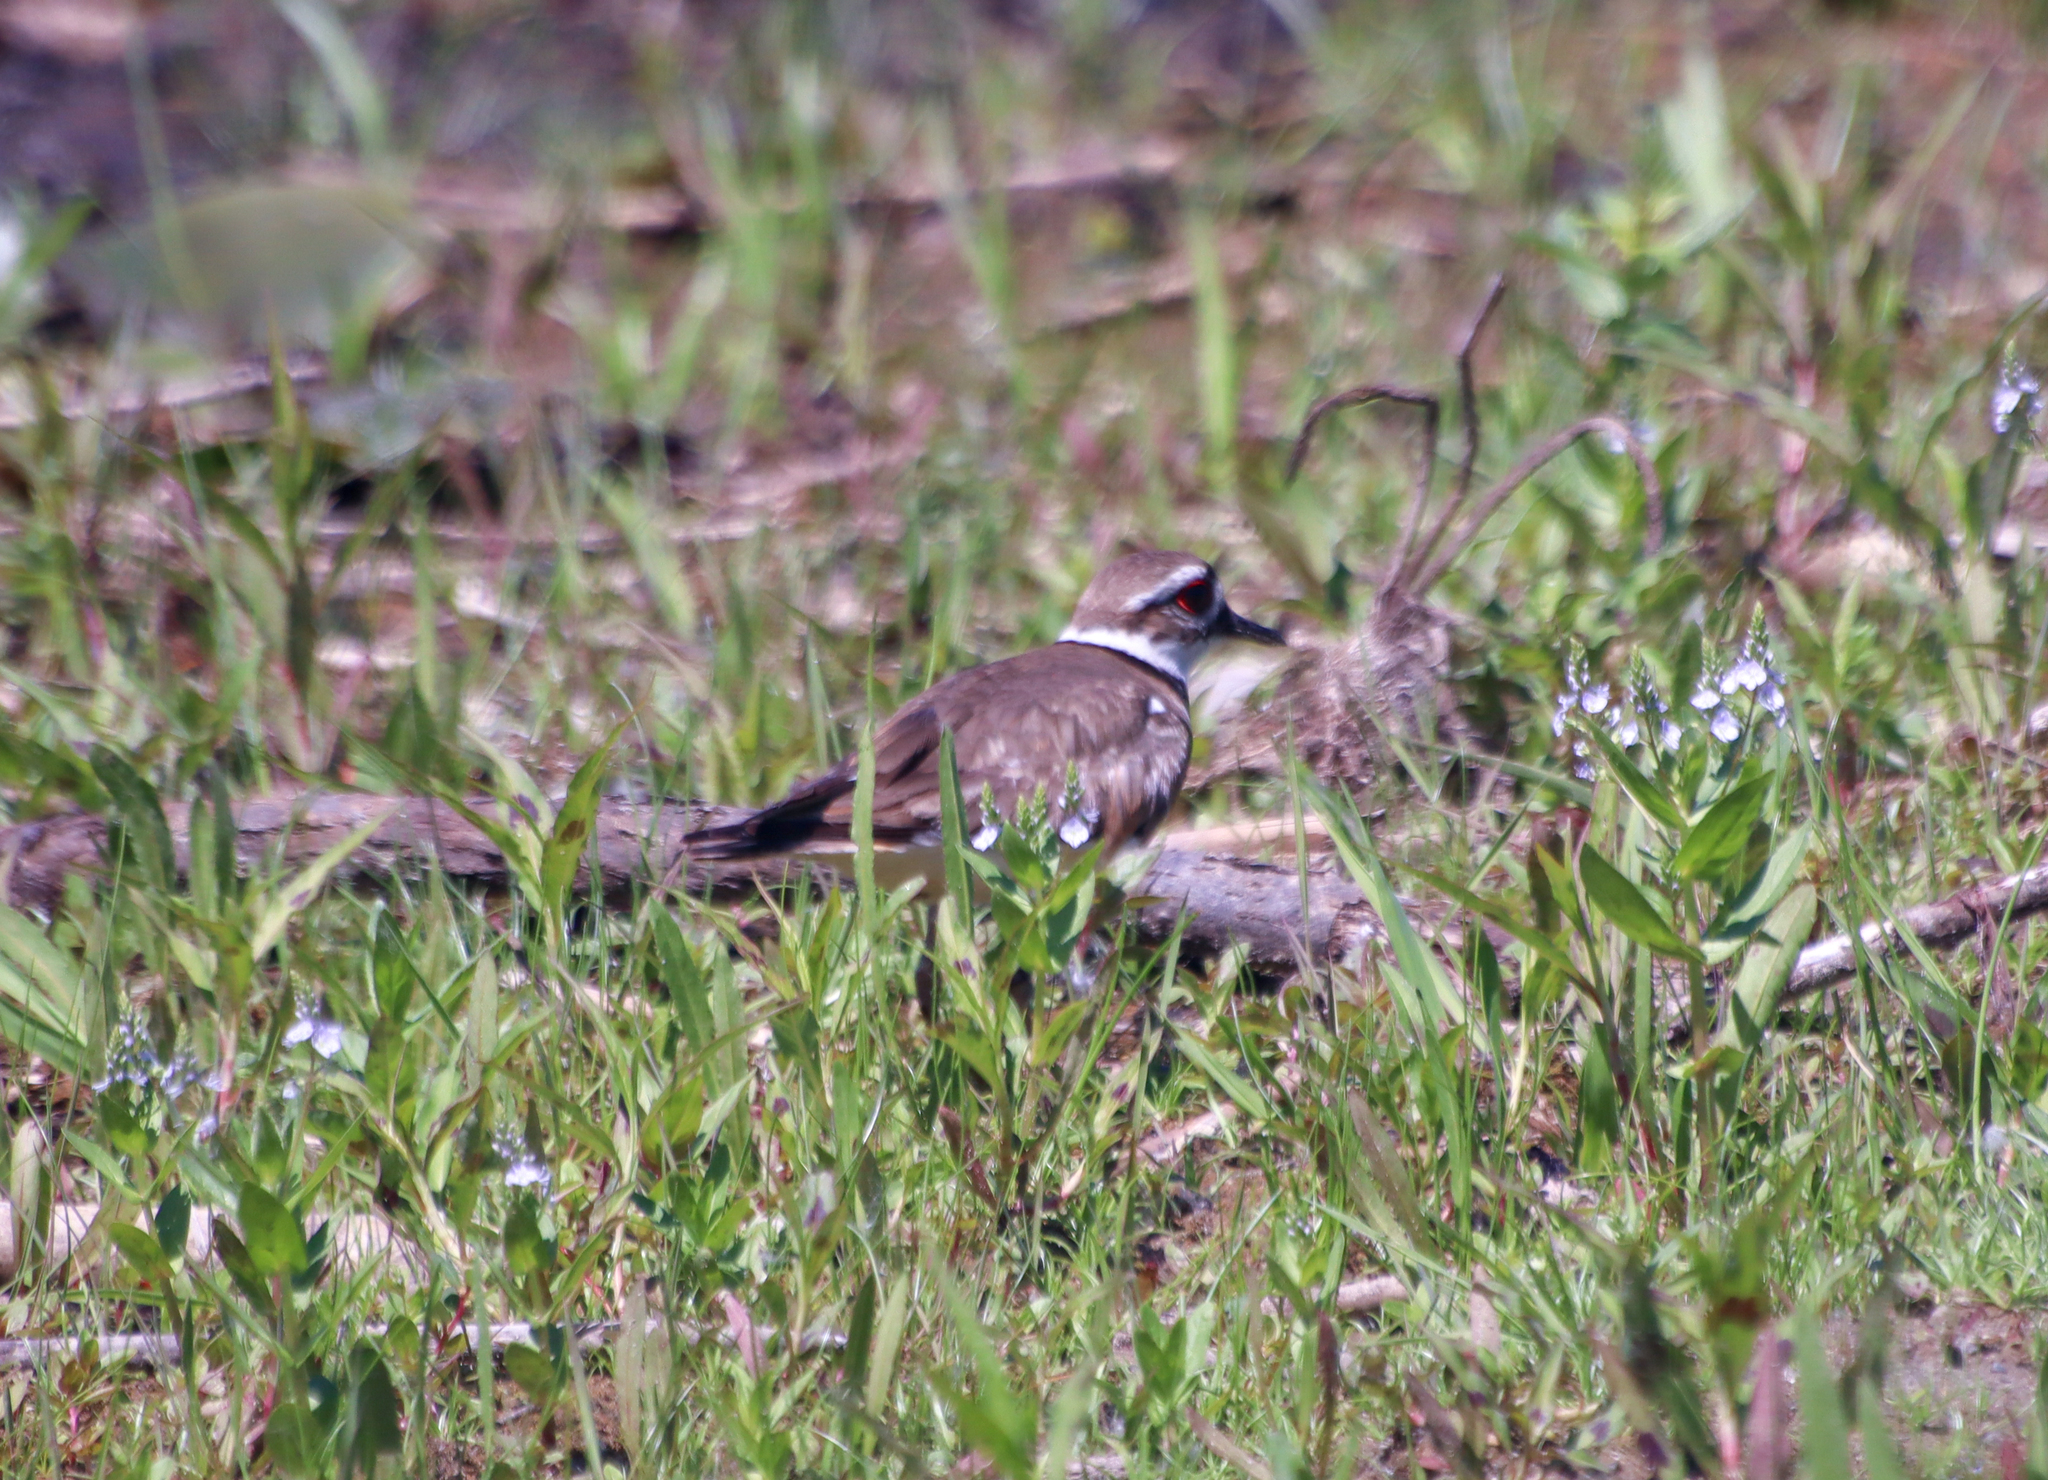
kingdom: Animalia
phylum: Chordata
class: Aves
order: Charadriiformes
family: Charadriidae
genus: Charadrius
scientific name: Charadrius vociferus
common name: Killdeer
